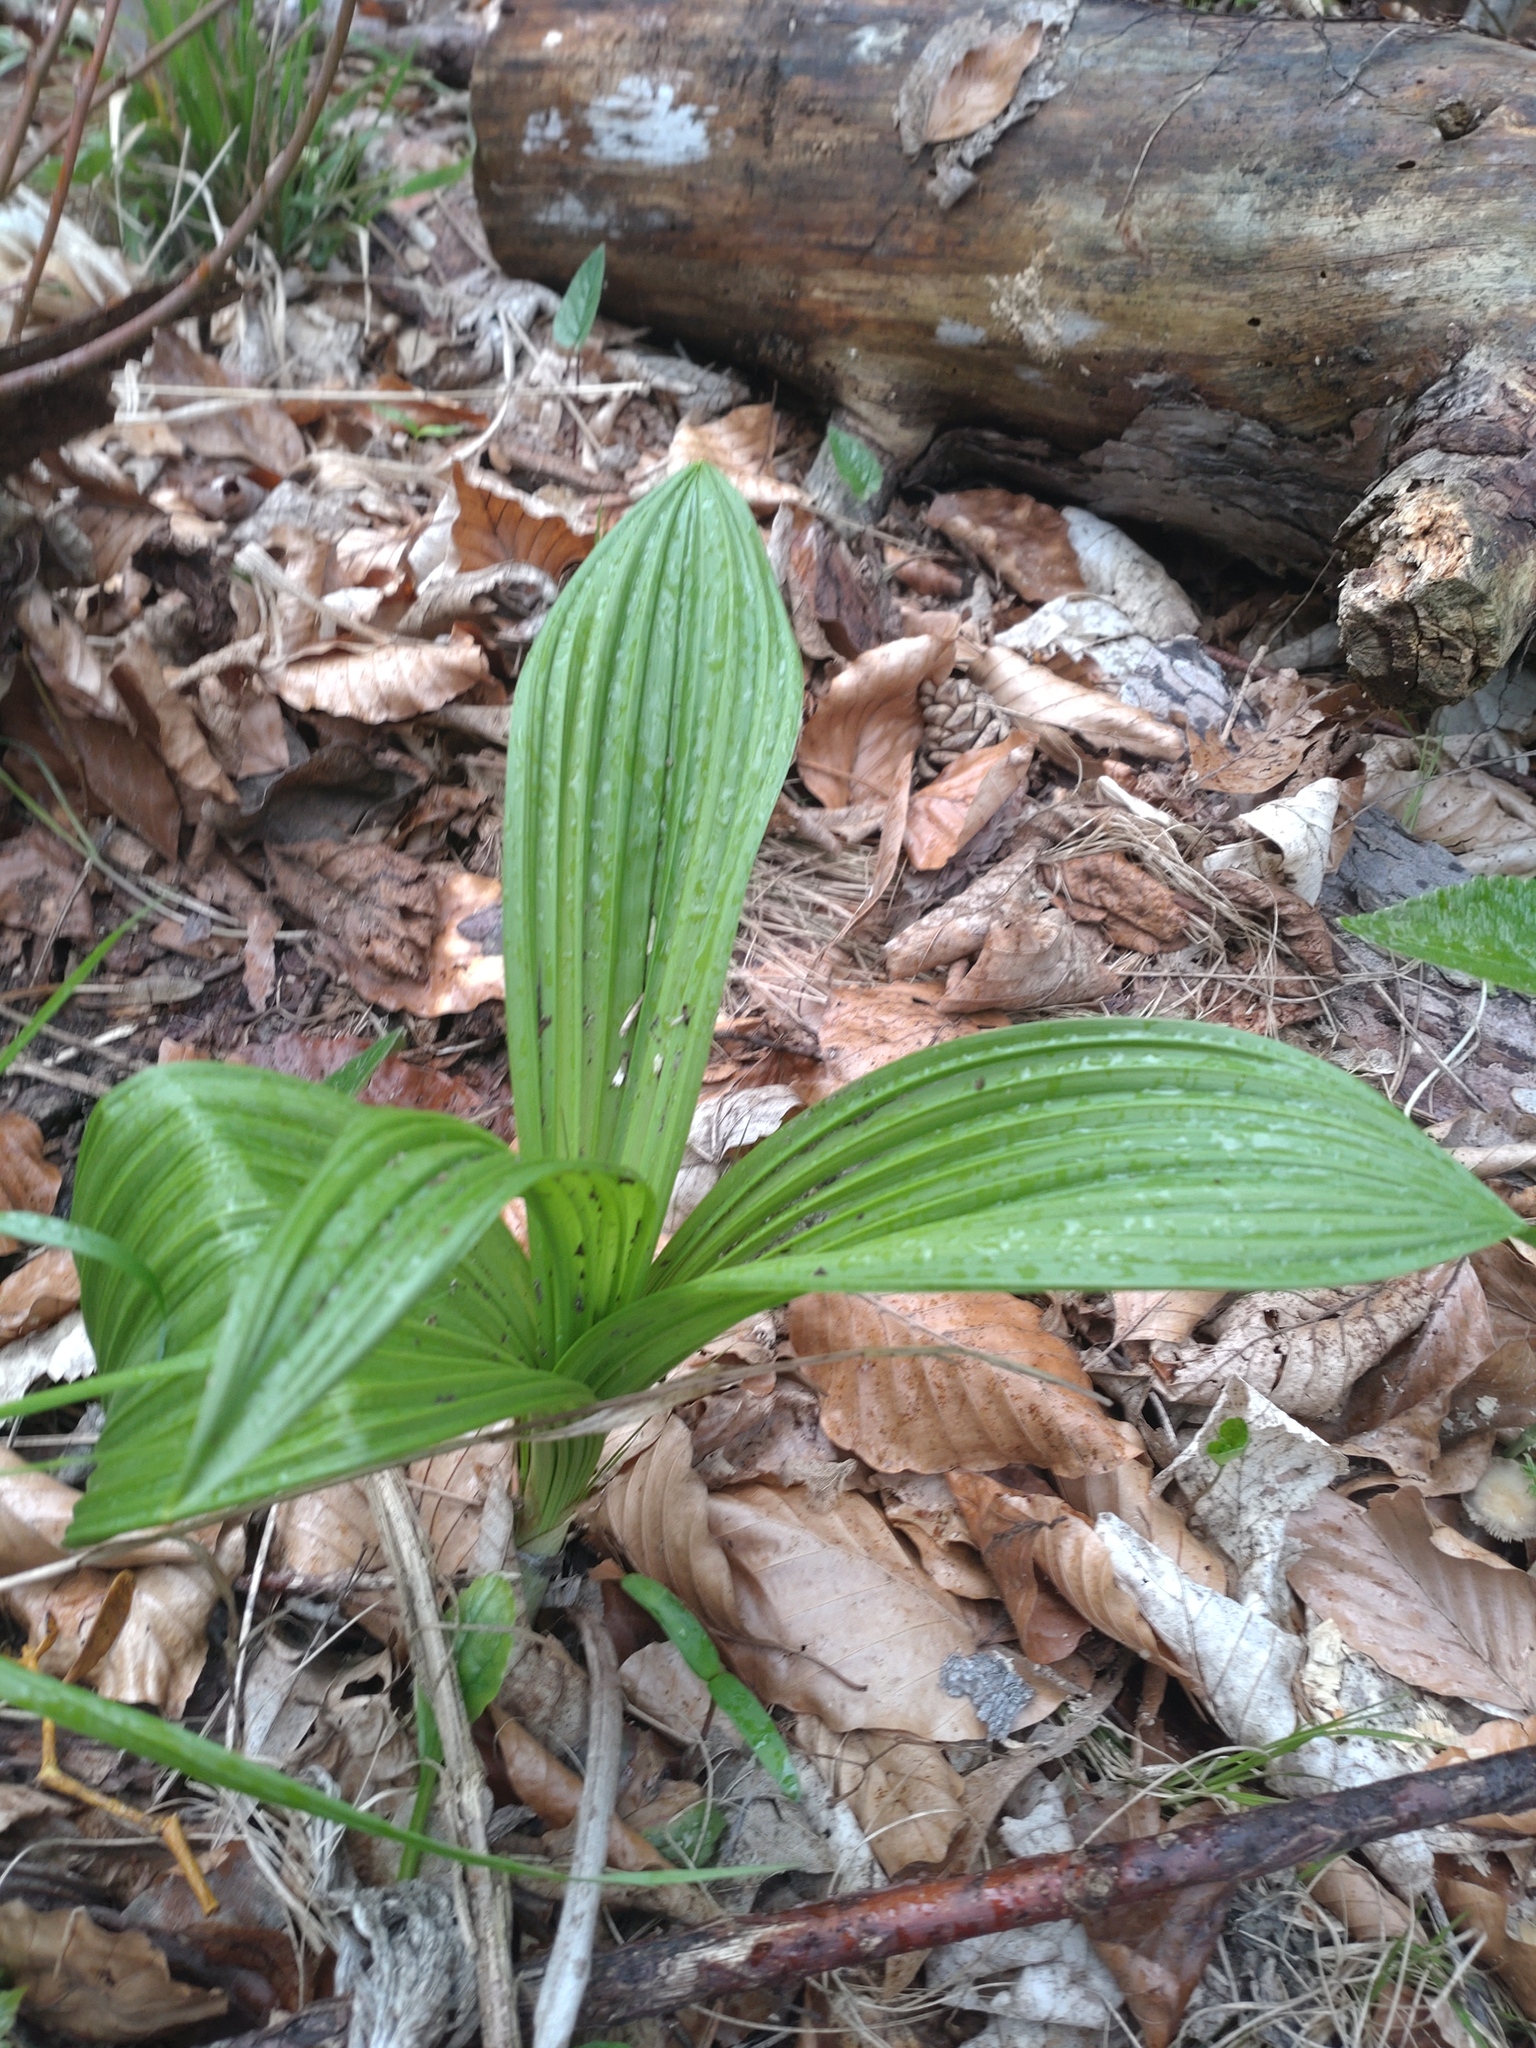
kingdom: Plantae
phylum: Tracheophyta
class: Liliopsida
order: Liliales
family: Melanthiaceae
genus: Veratrum
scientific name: Veratrum nigrum
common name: Black veratrum
